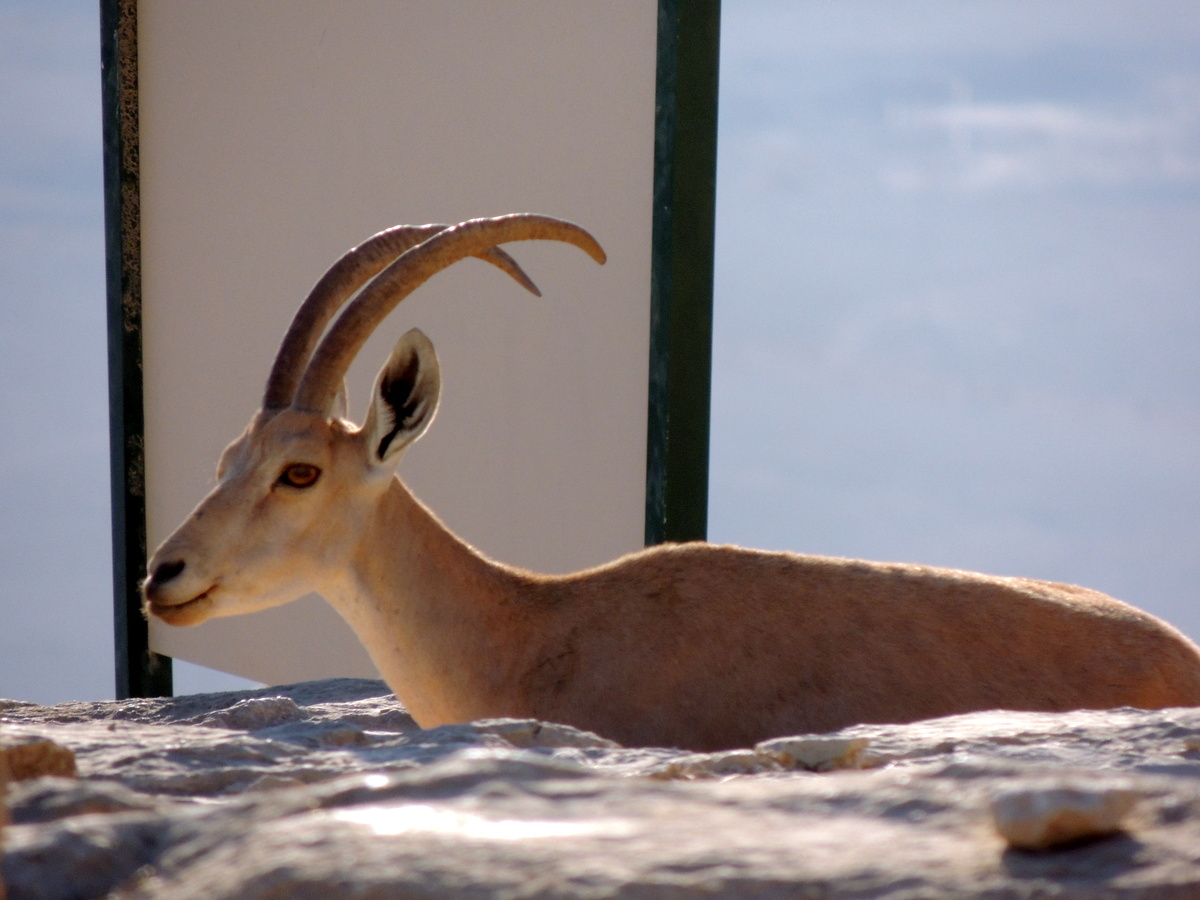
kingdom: Animalia
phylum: Chordata
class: Mammalia
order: Artiodactyla
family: Bovidae
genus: Capra
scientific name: Capra nubiana
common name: Nubian ibex
